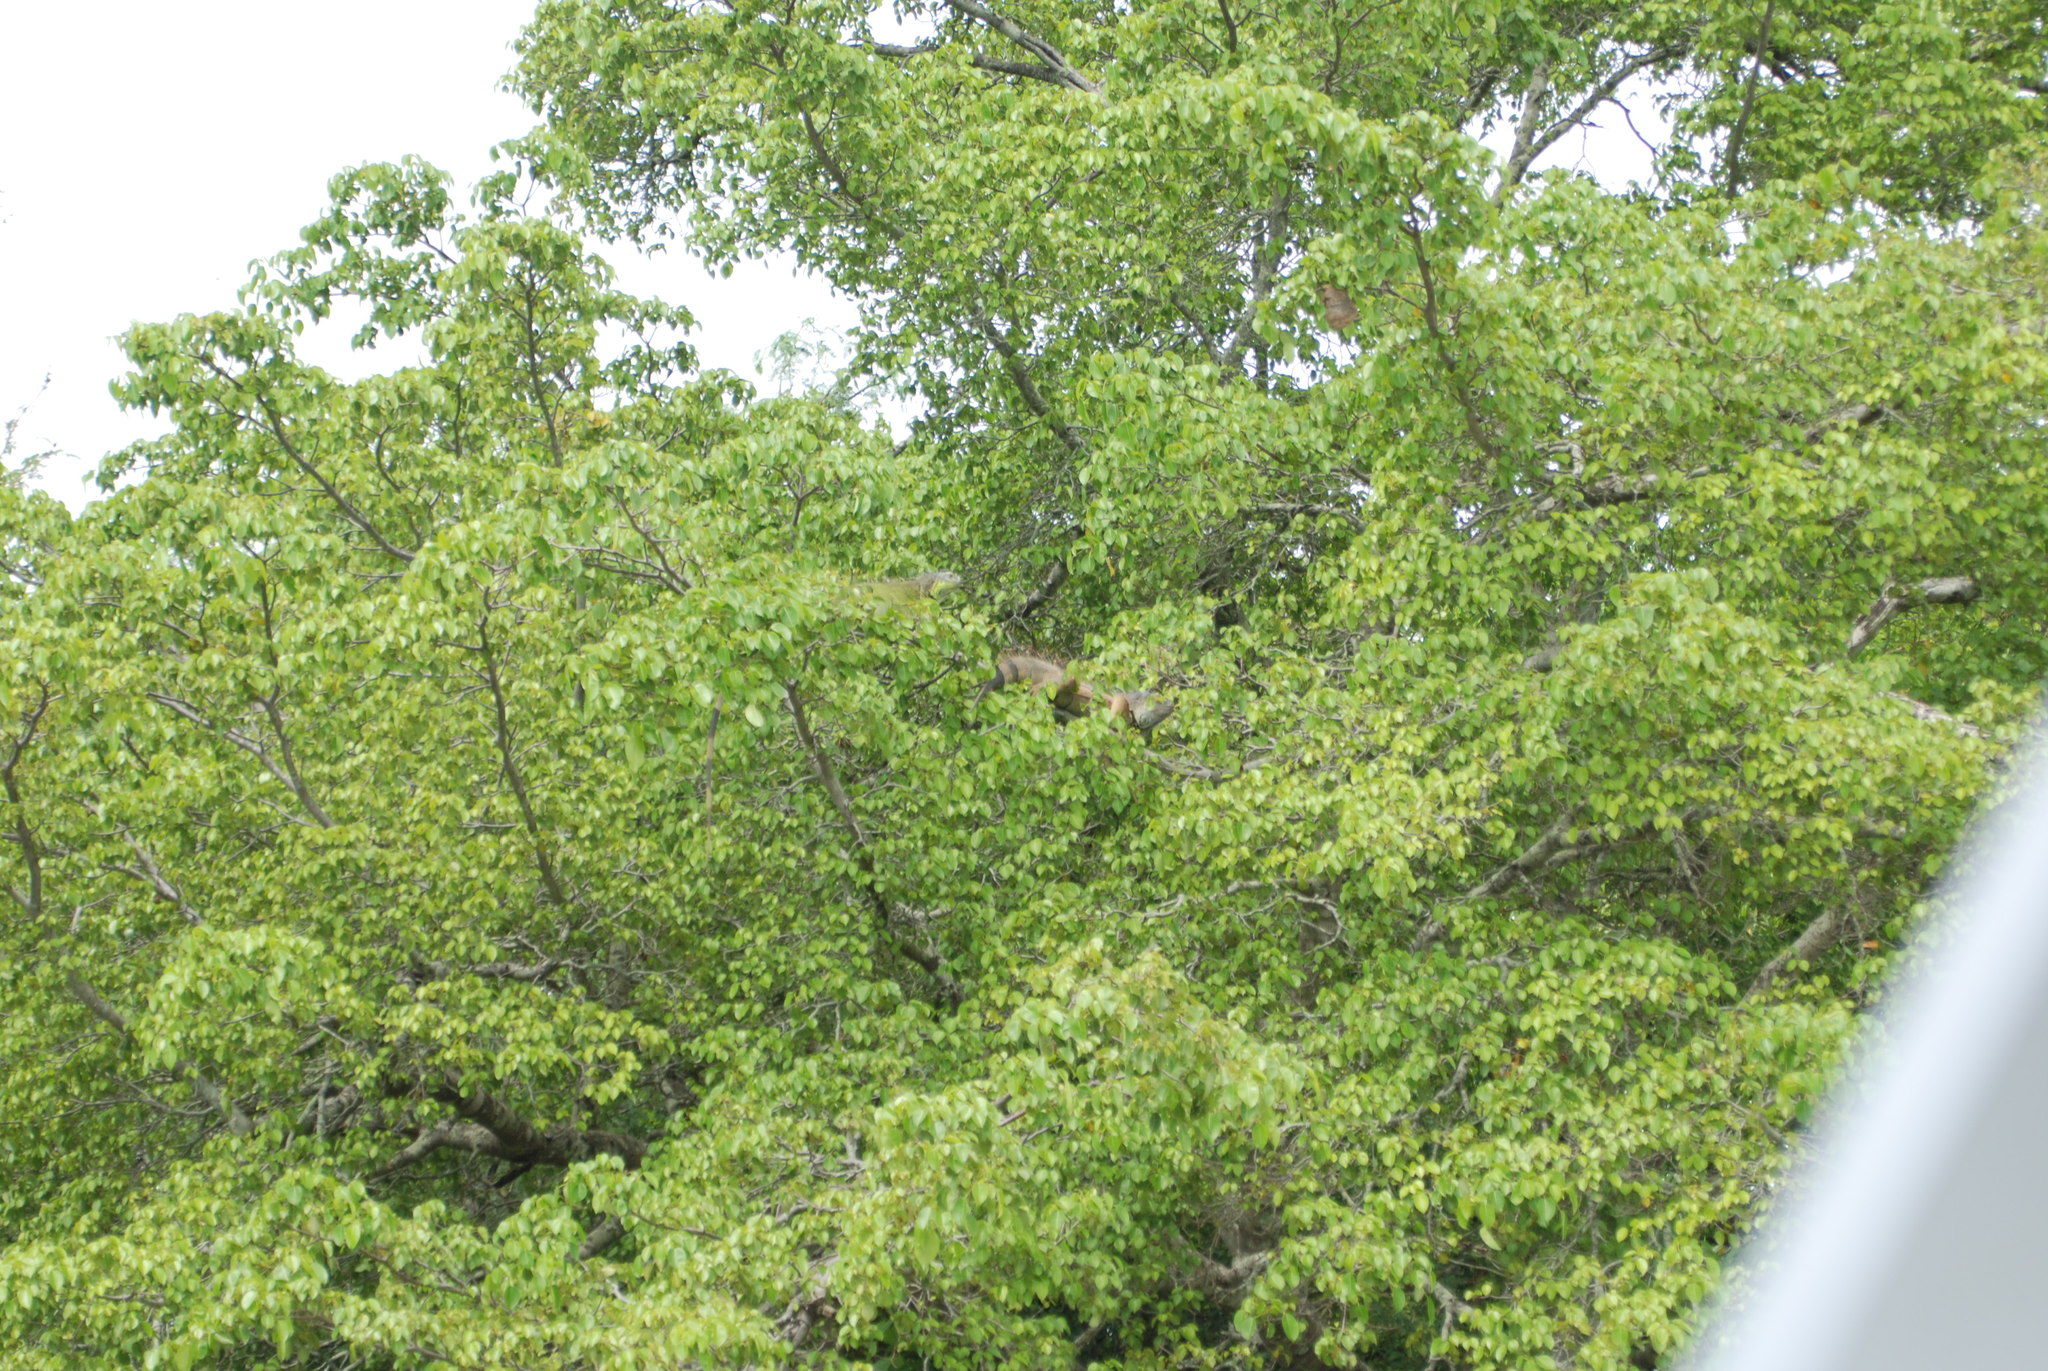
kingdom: Animalia
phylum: Chordata
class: Squamata
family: Iguanidae
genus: Iguana
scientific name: Iguana iguana
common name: Green iguana
